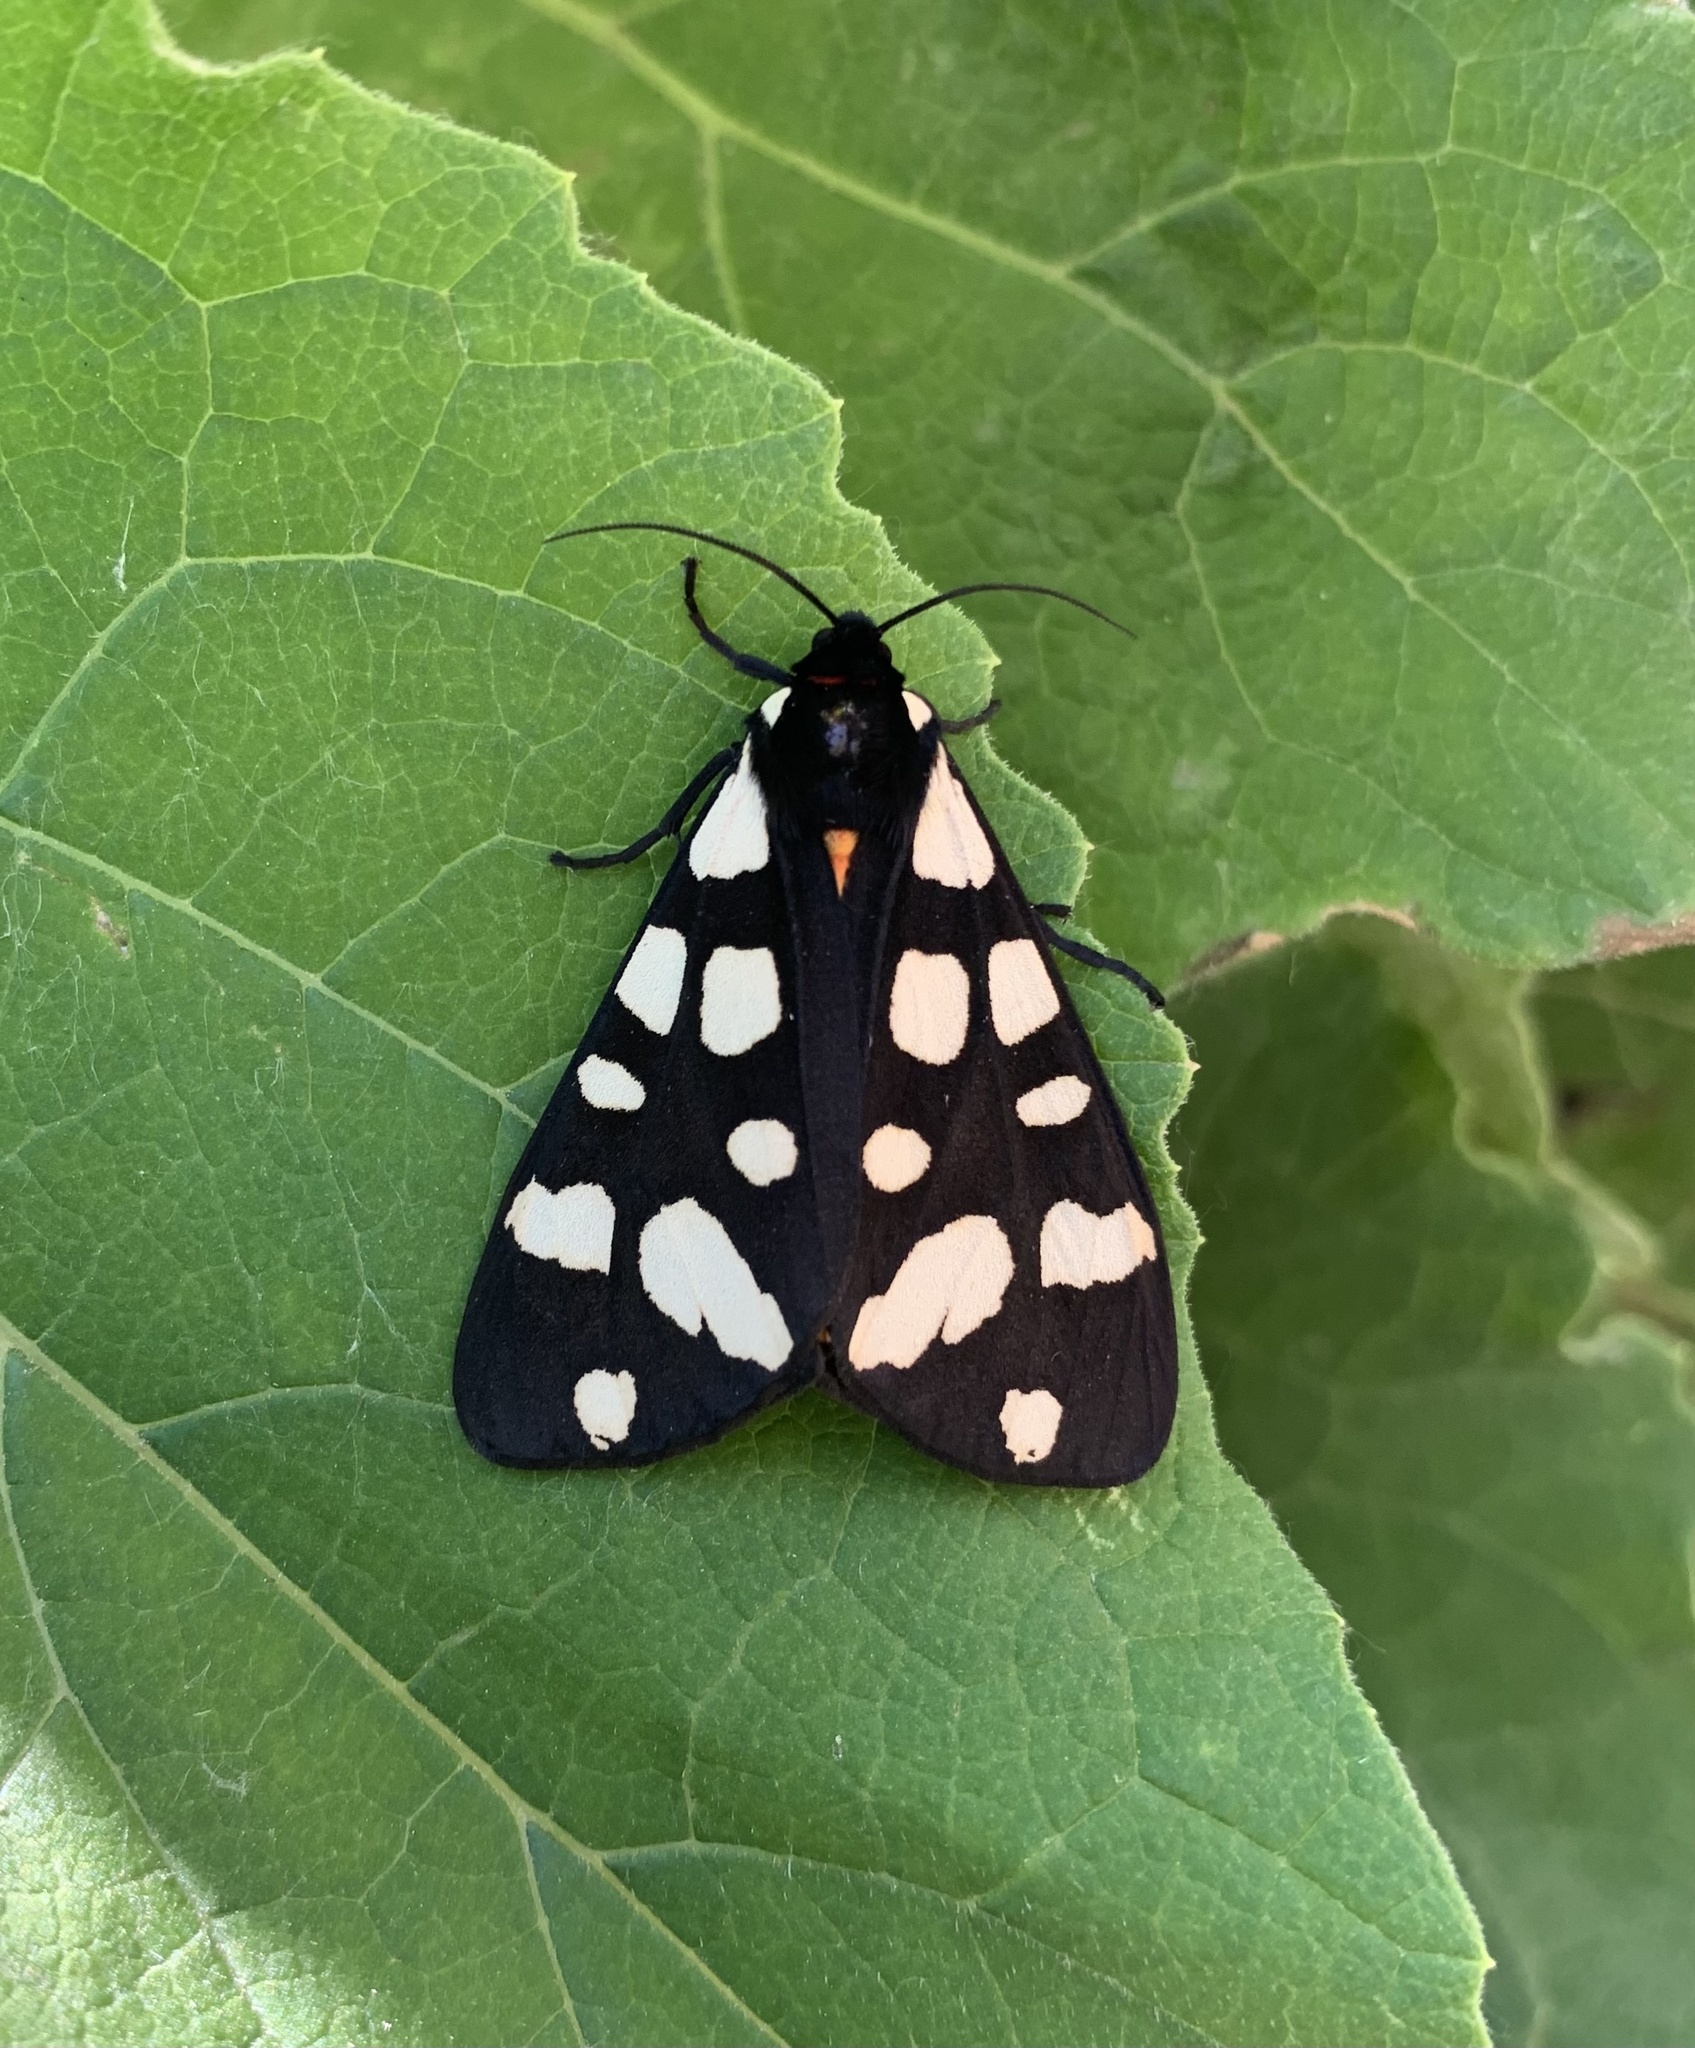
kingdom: Animalia
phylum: Arthropoda
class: Insecta
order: Lepidoptera
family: Erebidae
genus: Epicallia
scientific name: Epicallia villica
